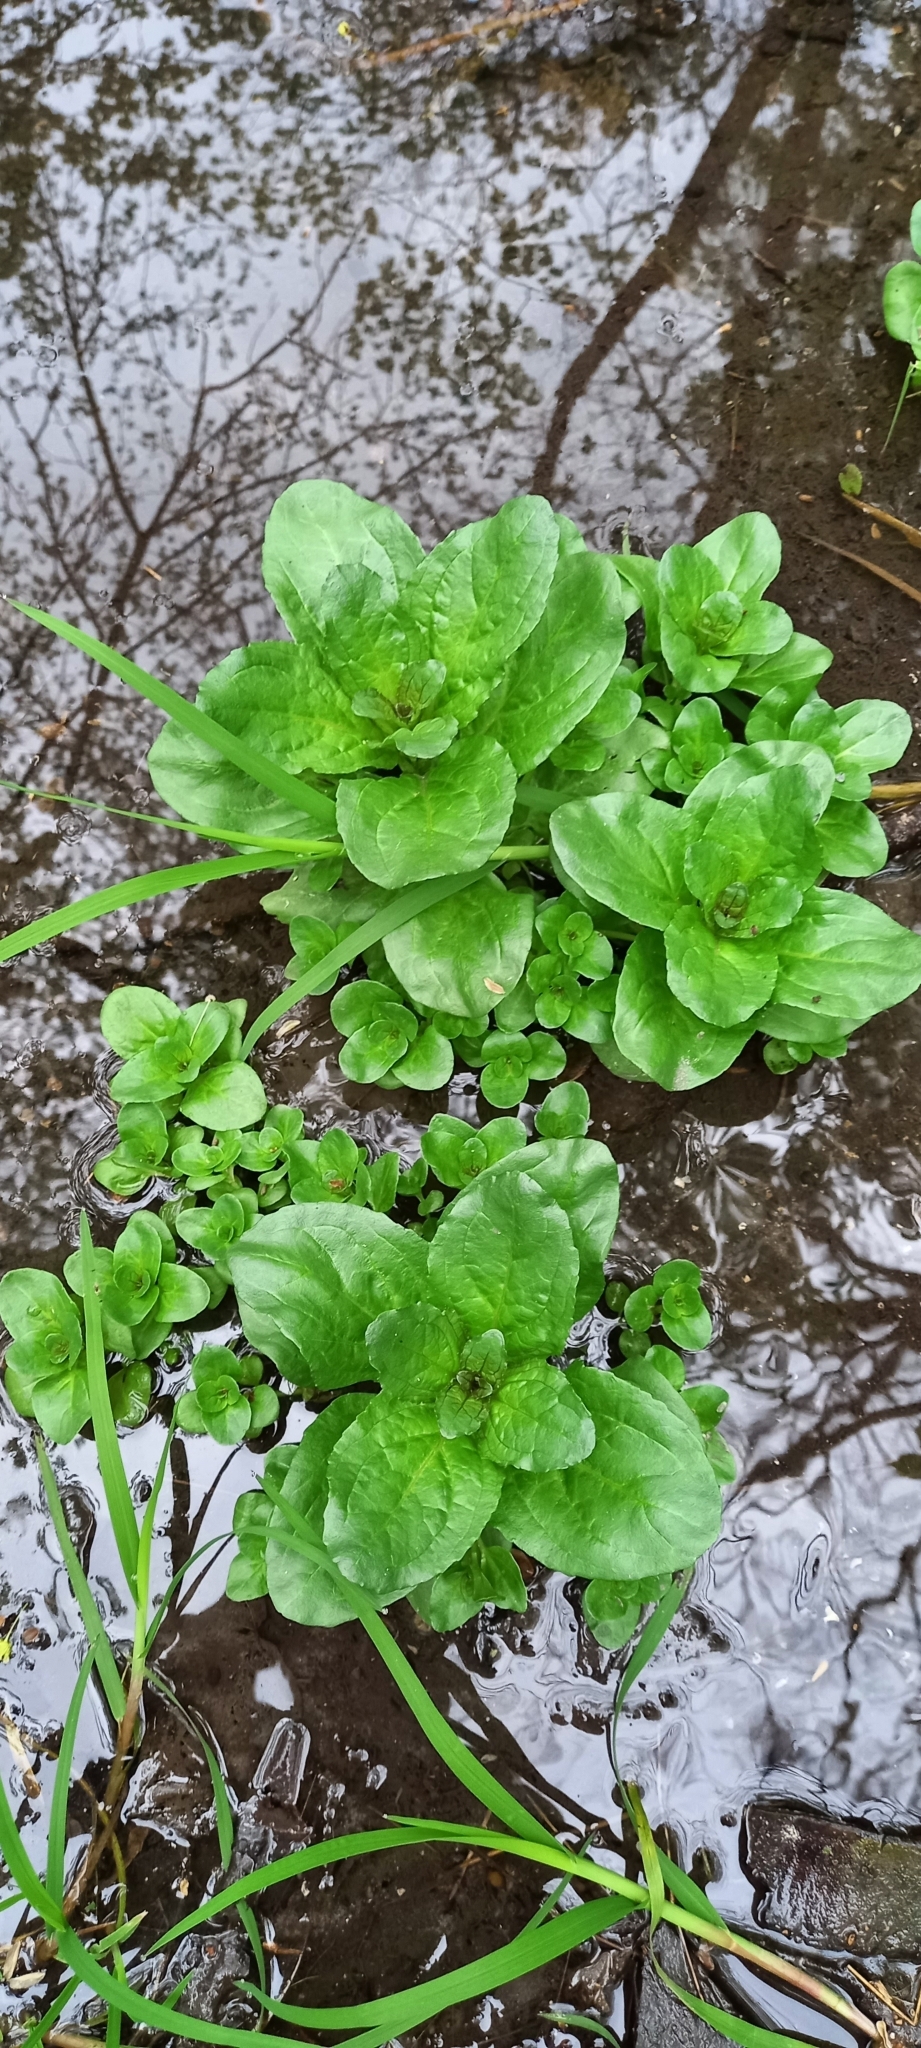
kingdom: Plantae
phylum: Tracheophyta
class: Magnoliopsida
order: Lamiales
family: Plantaginaceae
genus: Veronica
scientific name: Veronica beccabunga
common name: Brooklime
